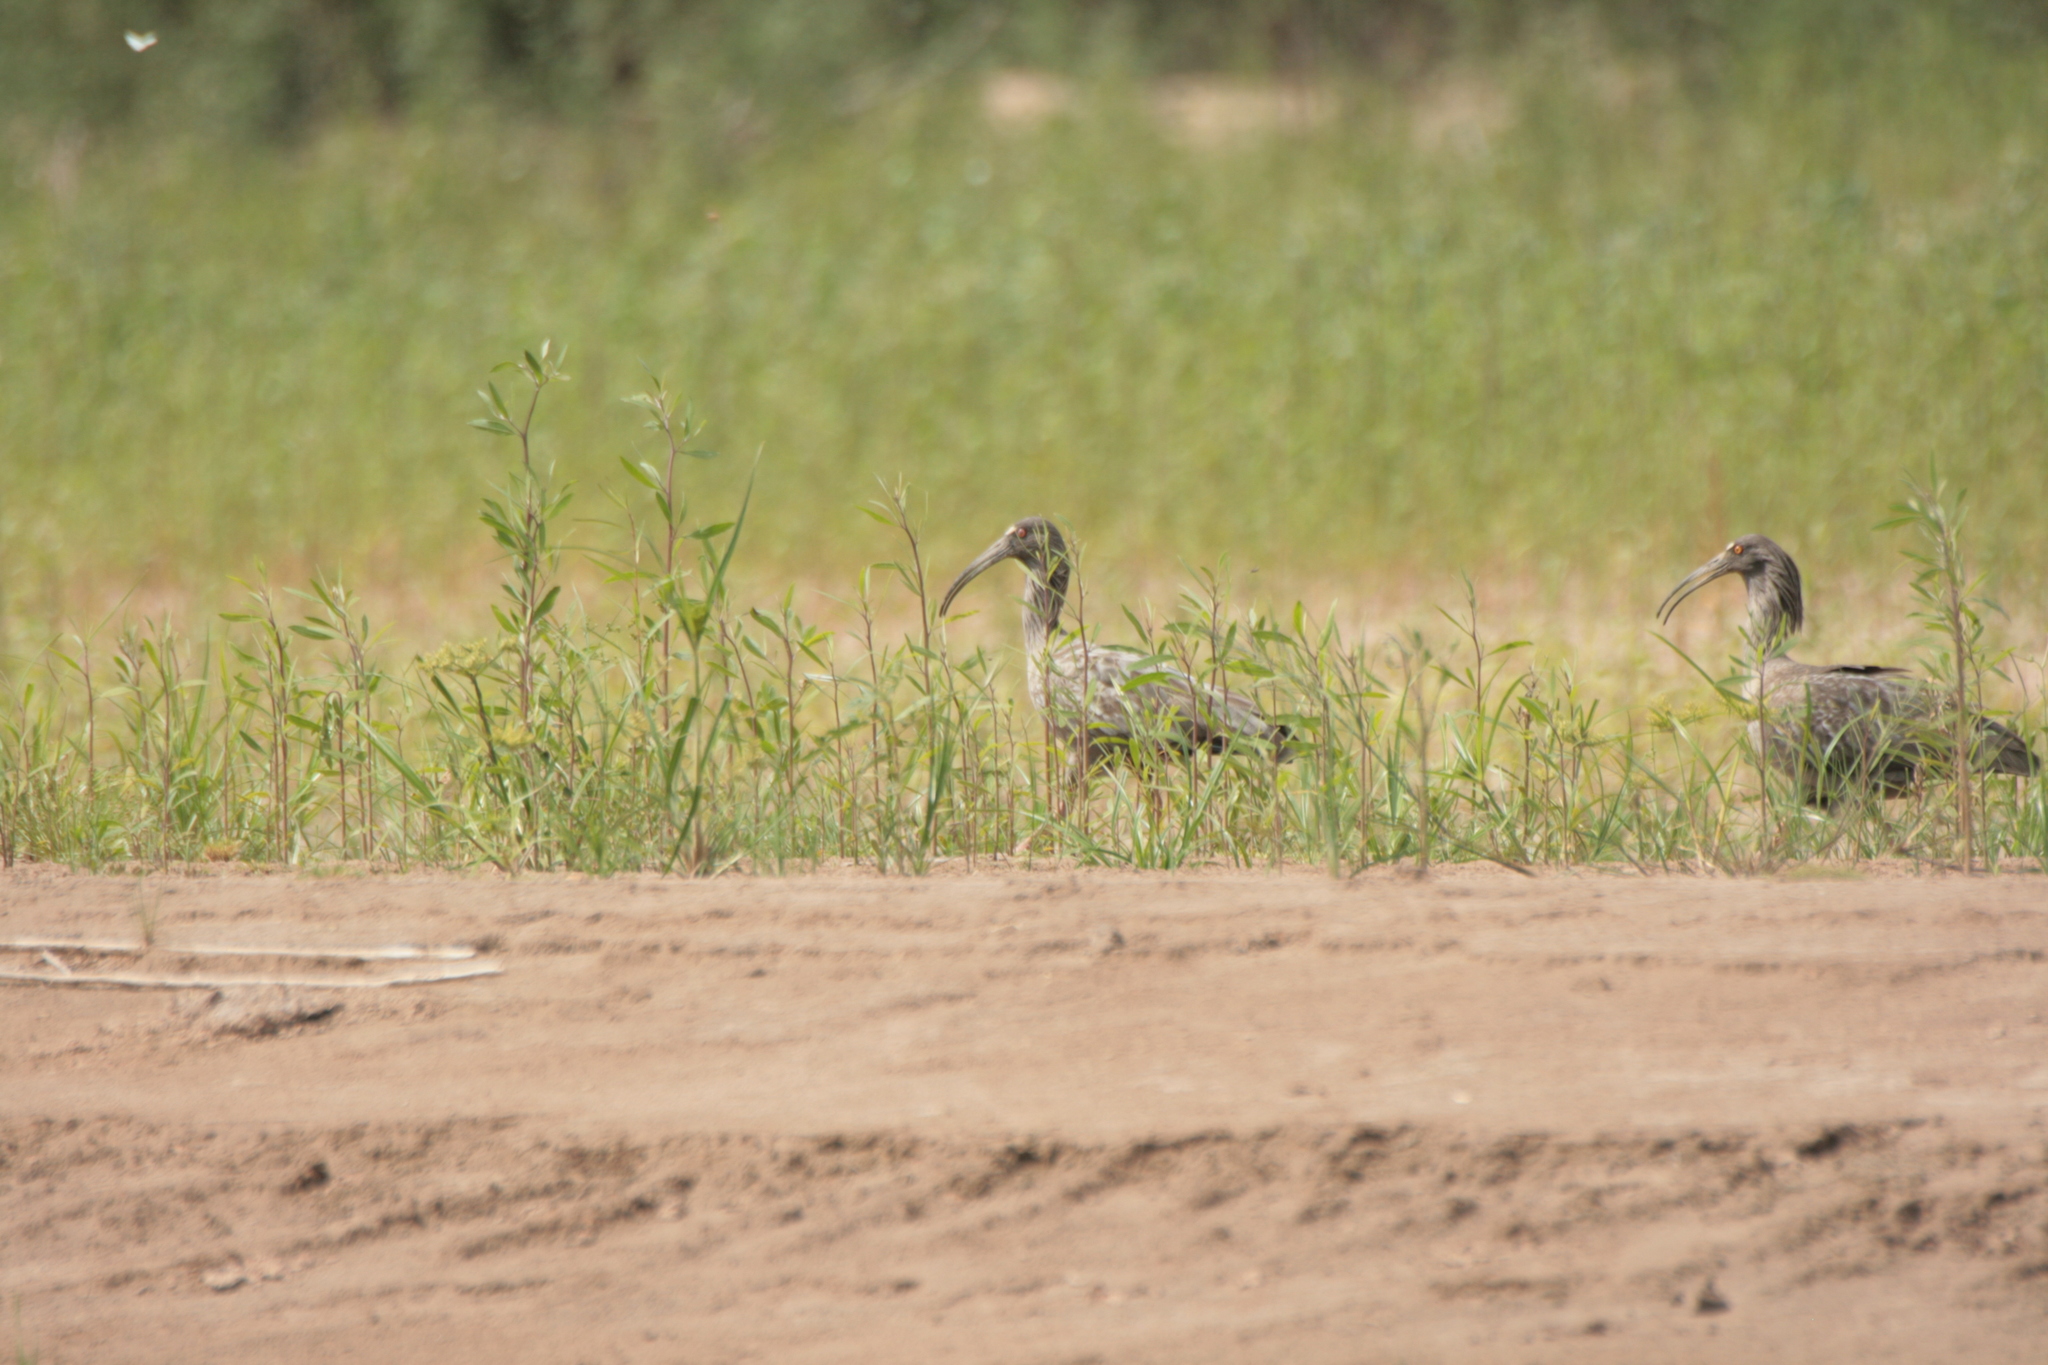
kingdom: Animalia
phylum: Chordata
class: Aves
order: Pelecaniformes
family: Threskiornithidae
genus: Theristicus
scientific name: Theristicus caerulescens
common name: Plumbeous ibis
